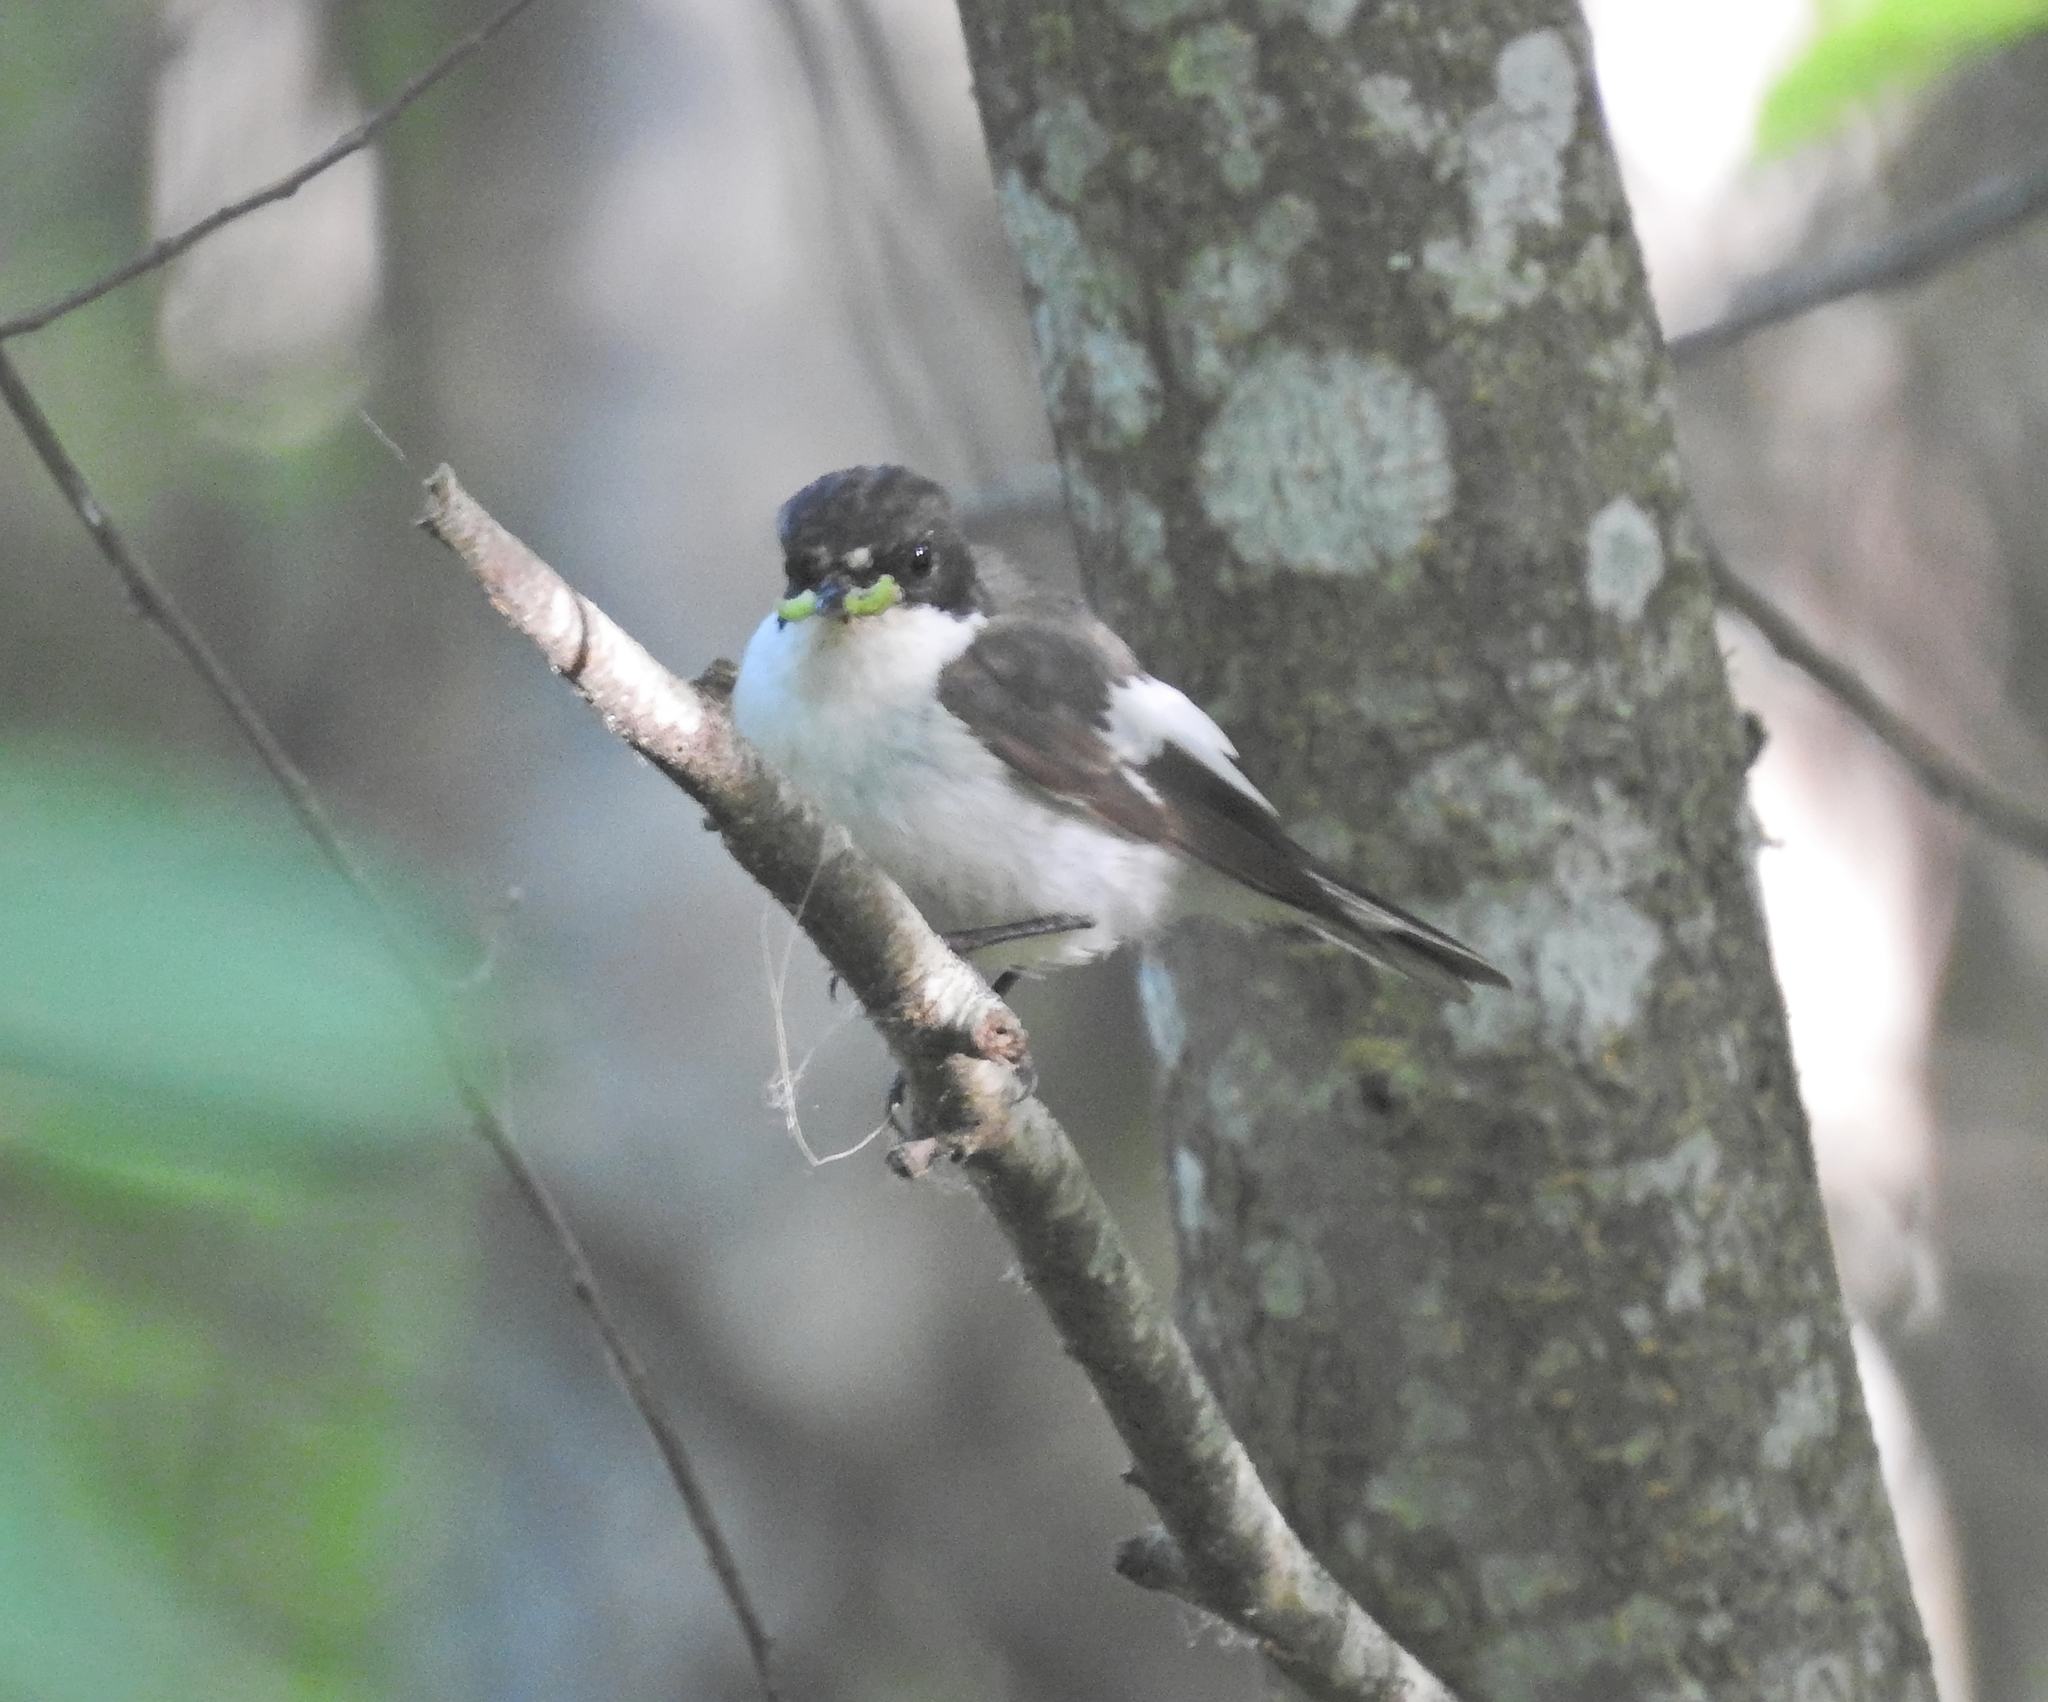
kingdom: Animalia
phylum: Chordata
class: Aves
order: Passeriformes
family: Muscicapidae
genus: Ficedula
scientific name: Ficedula hypoleuca
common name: European pied flycatcher
